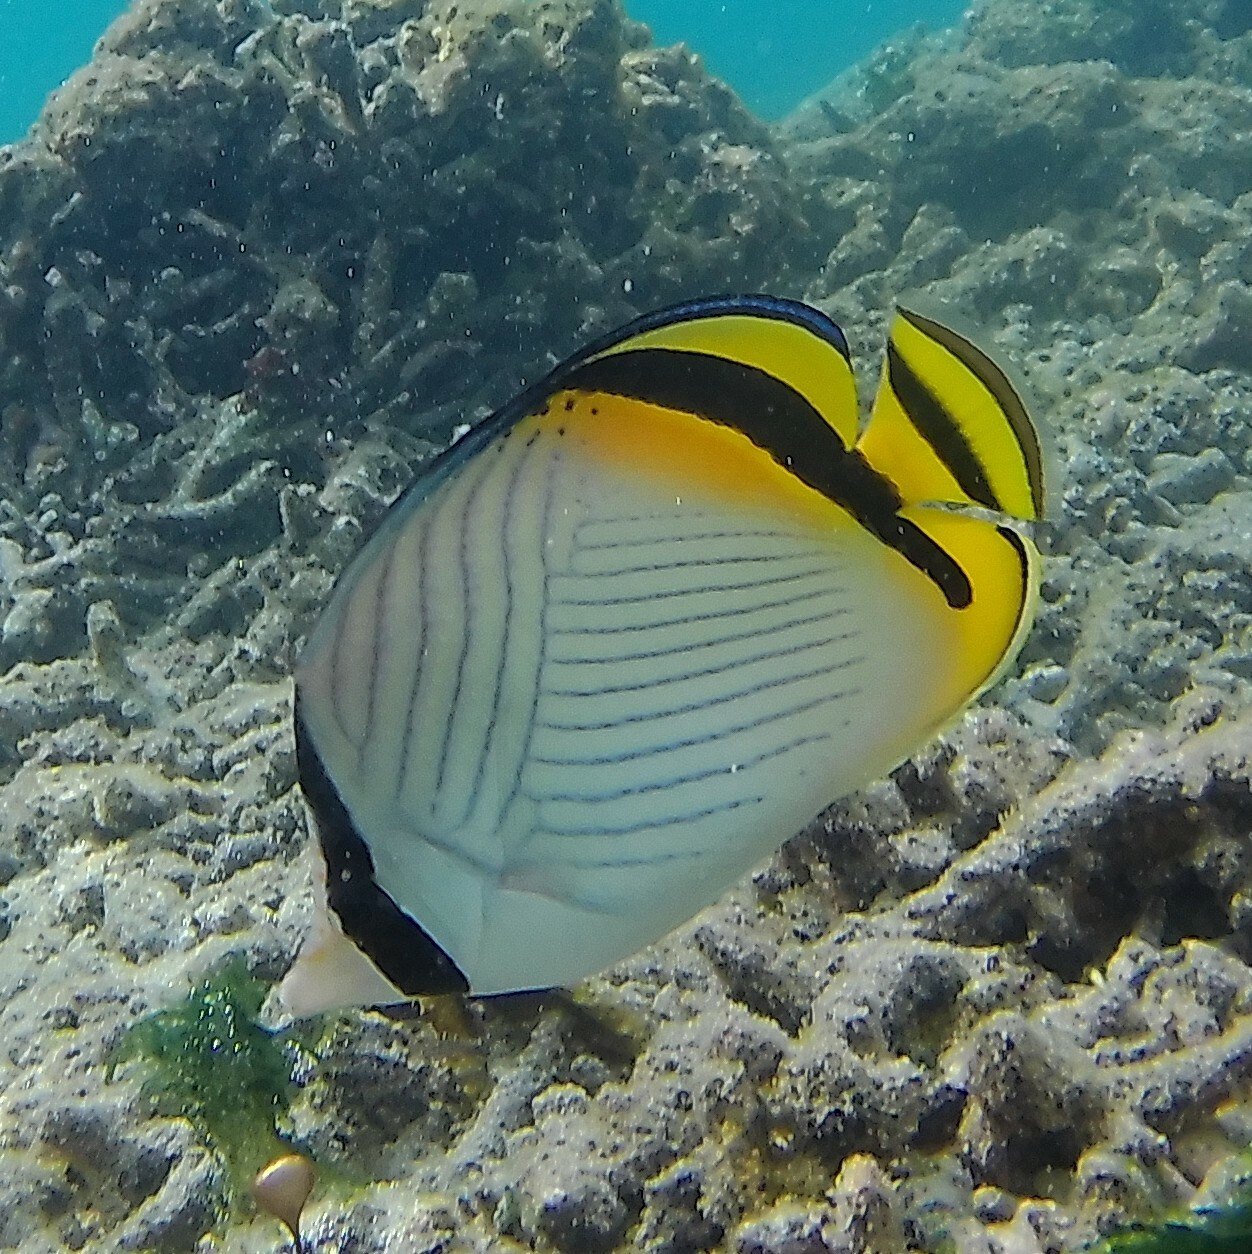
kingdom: Animalia
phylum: Chordata
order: Perciformes
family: Chaetodontidae
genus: Chaetodon
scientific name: Chaetodon vagabundus
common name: Vagabond butterflyfish
